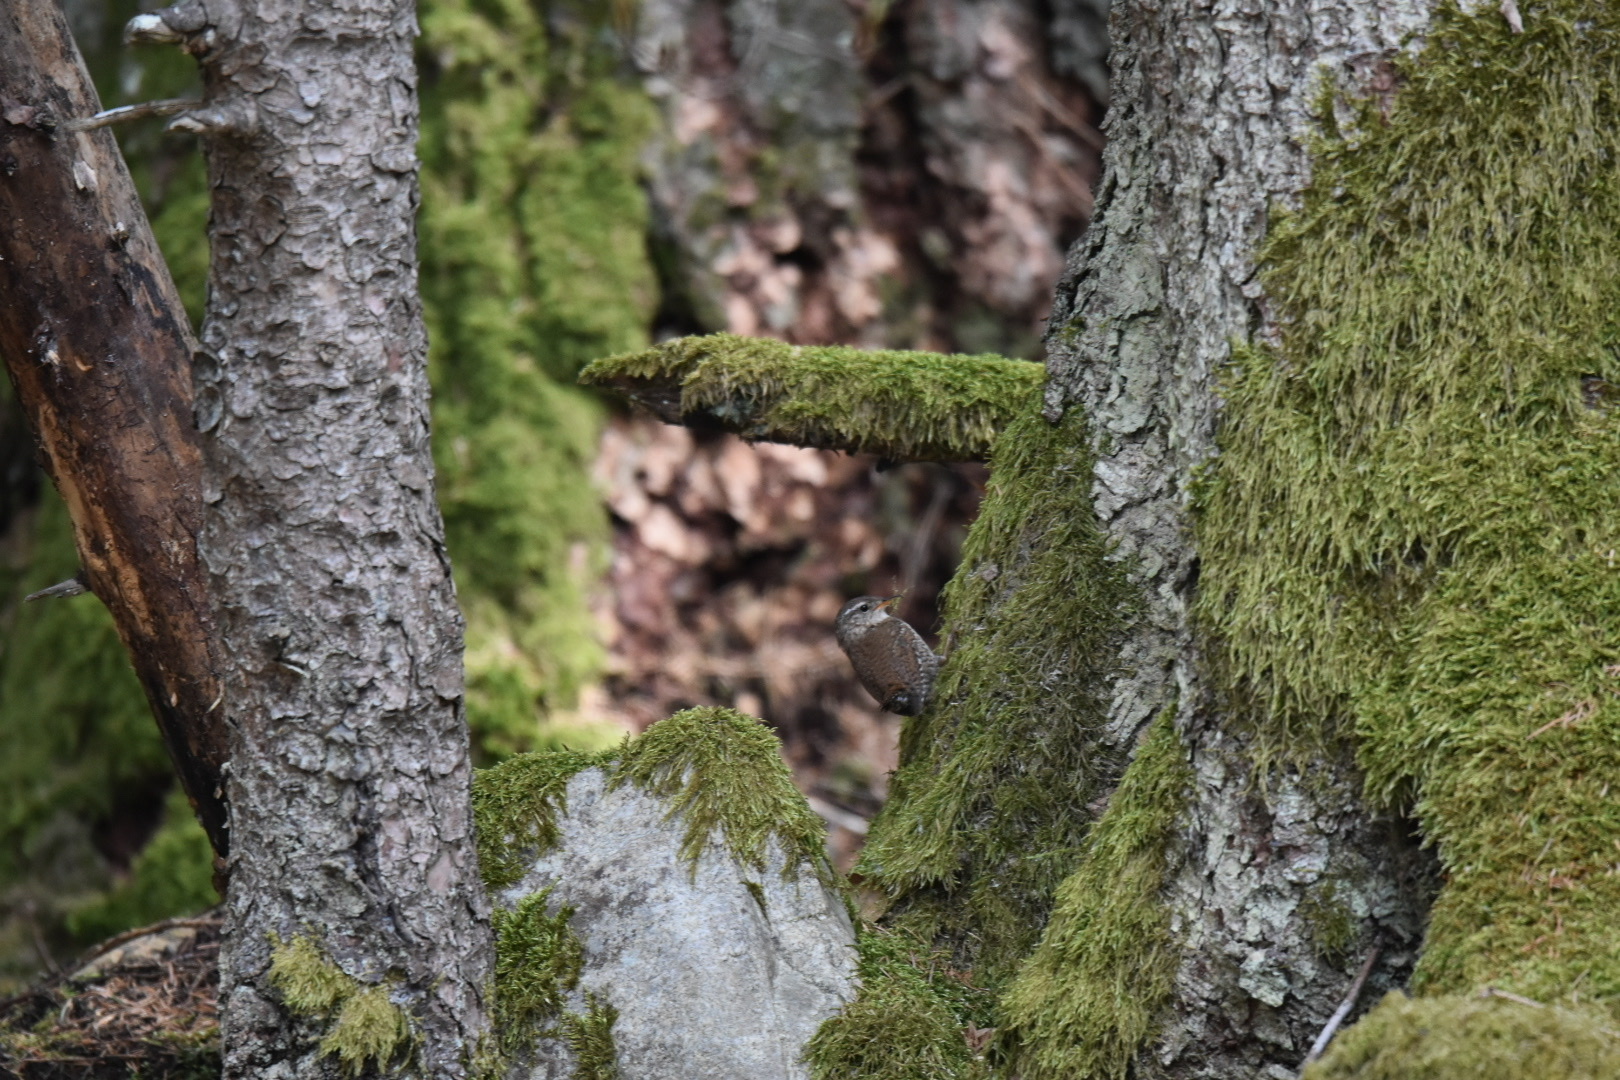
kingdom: Animalia
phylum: Chordata
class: Aves
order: Passeriformes
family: Troglodytidae
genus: Troglodytes
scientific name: Troglodytes troglodytes
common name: Eurasian wren
